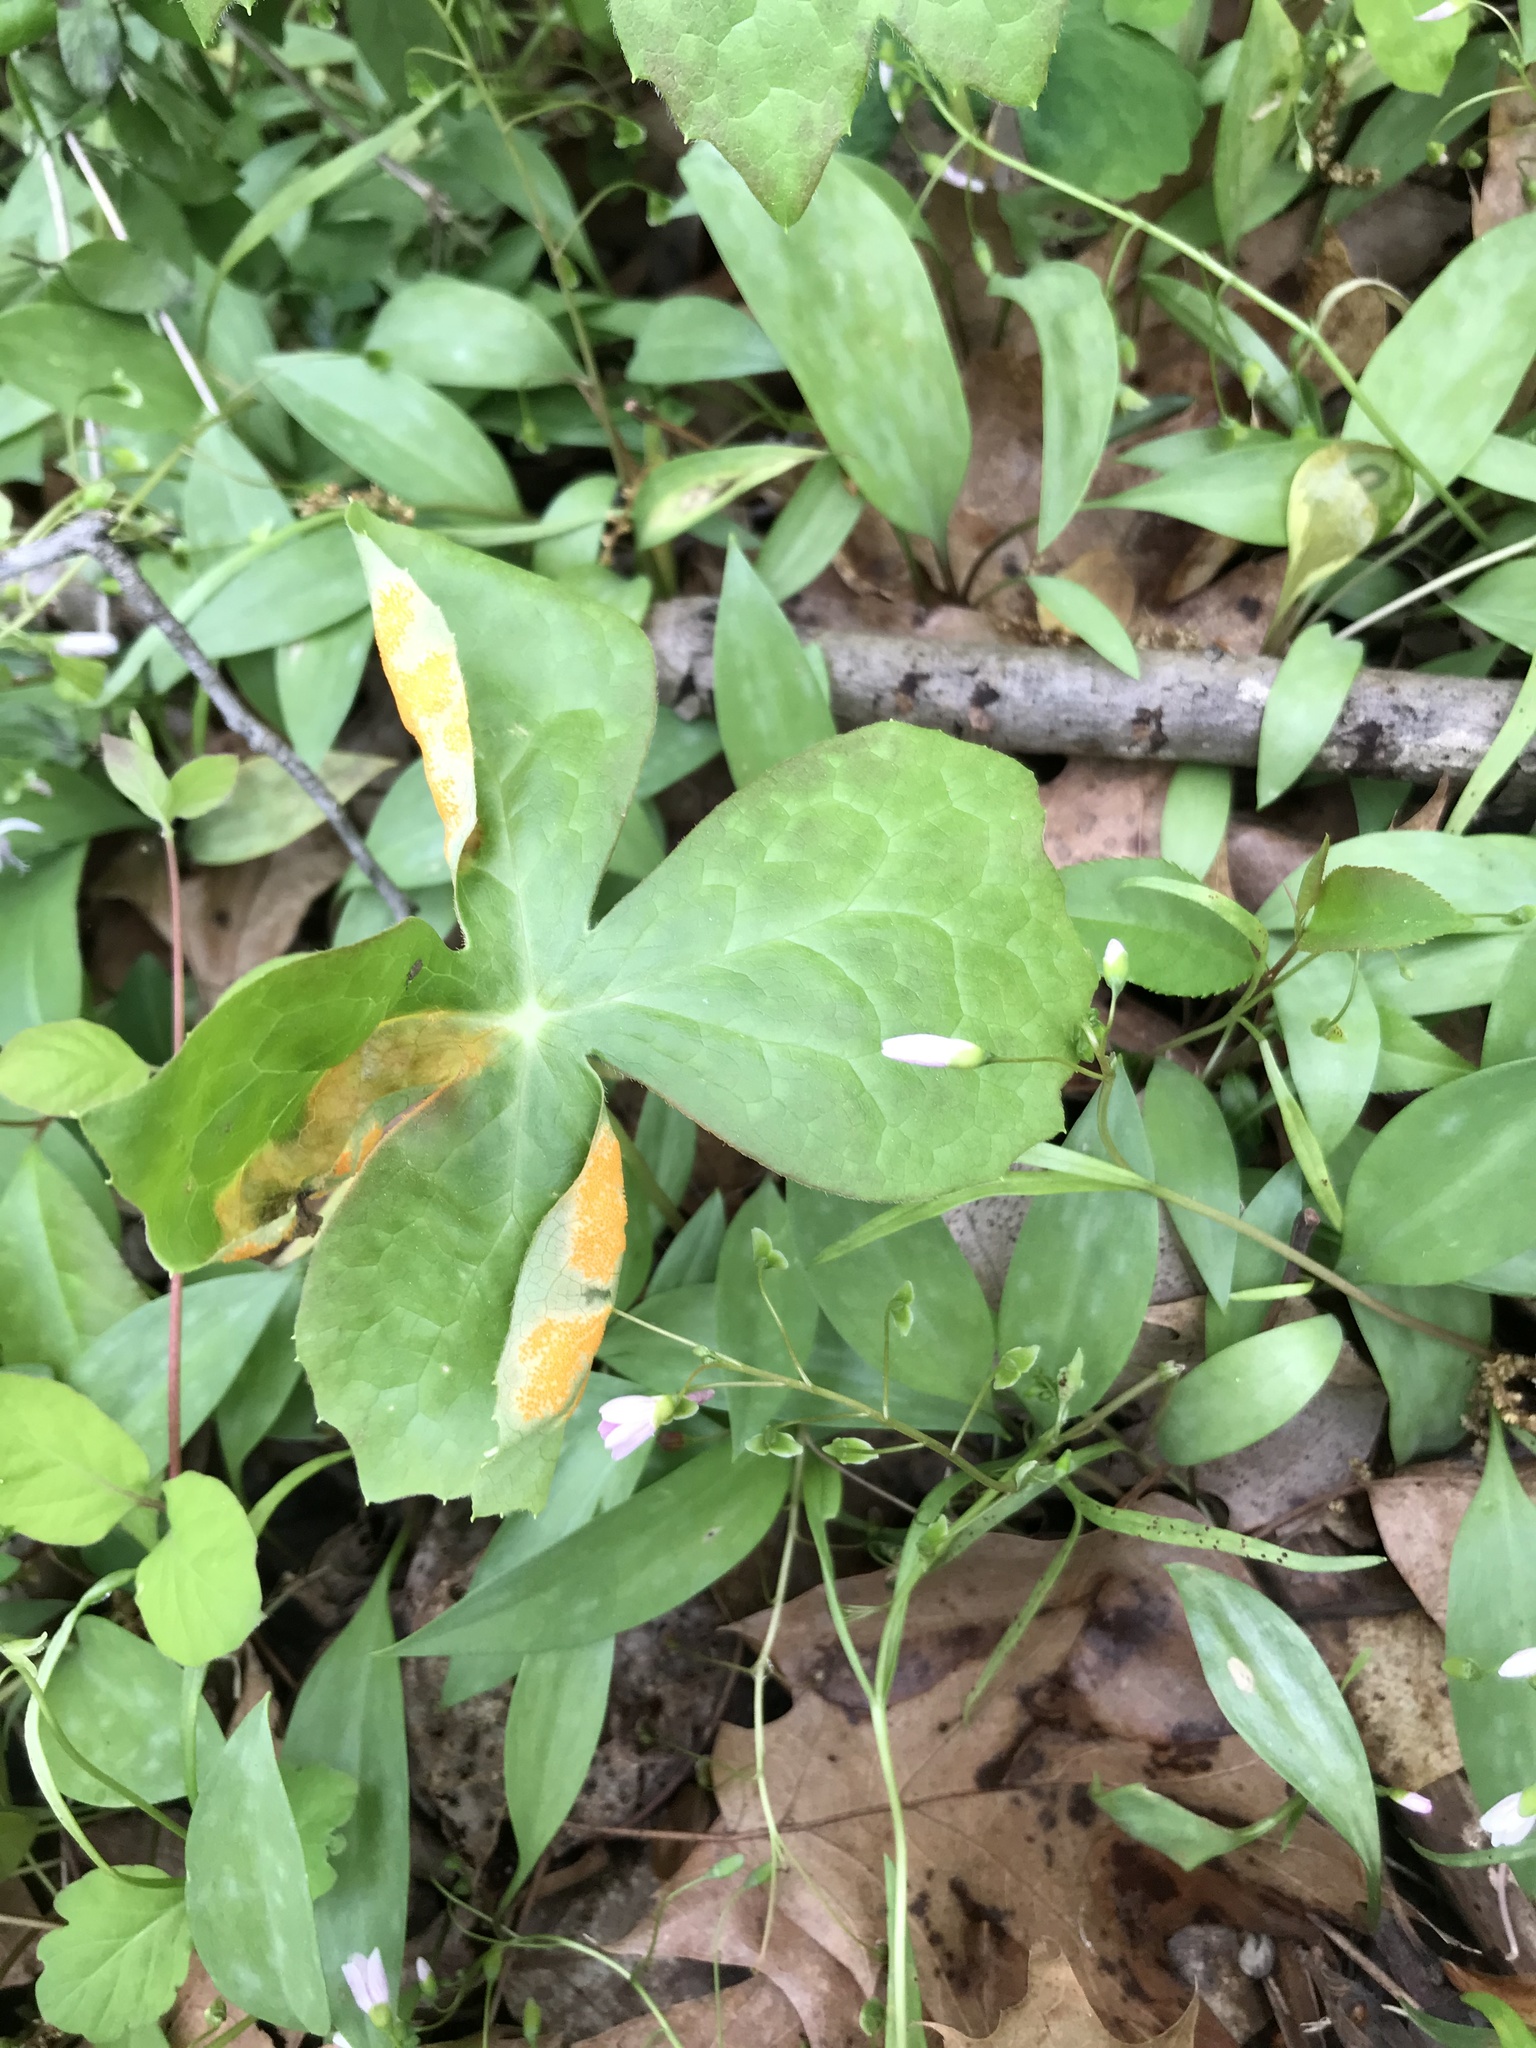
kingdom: Fungi
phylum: Basidiomycota
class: Pucciniomycetes
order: Pucciniales
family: Pucciniaceae
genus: Puccinia
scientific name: Puccinia podophylli
